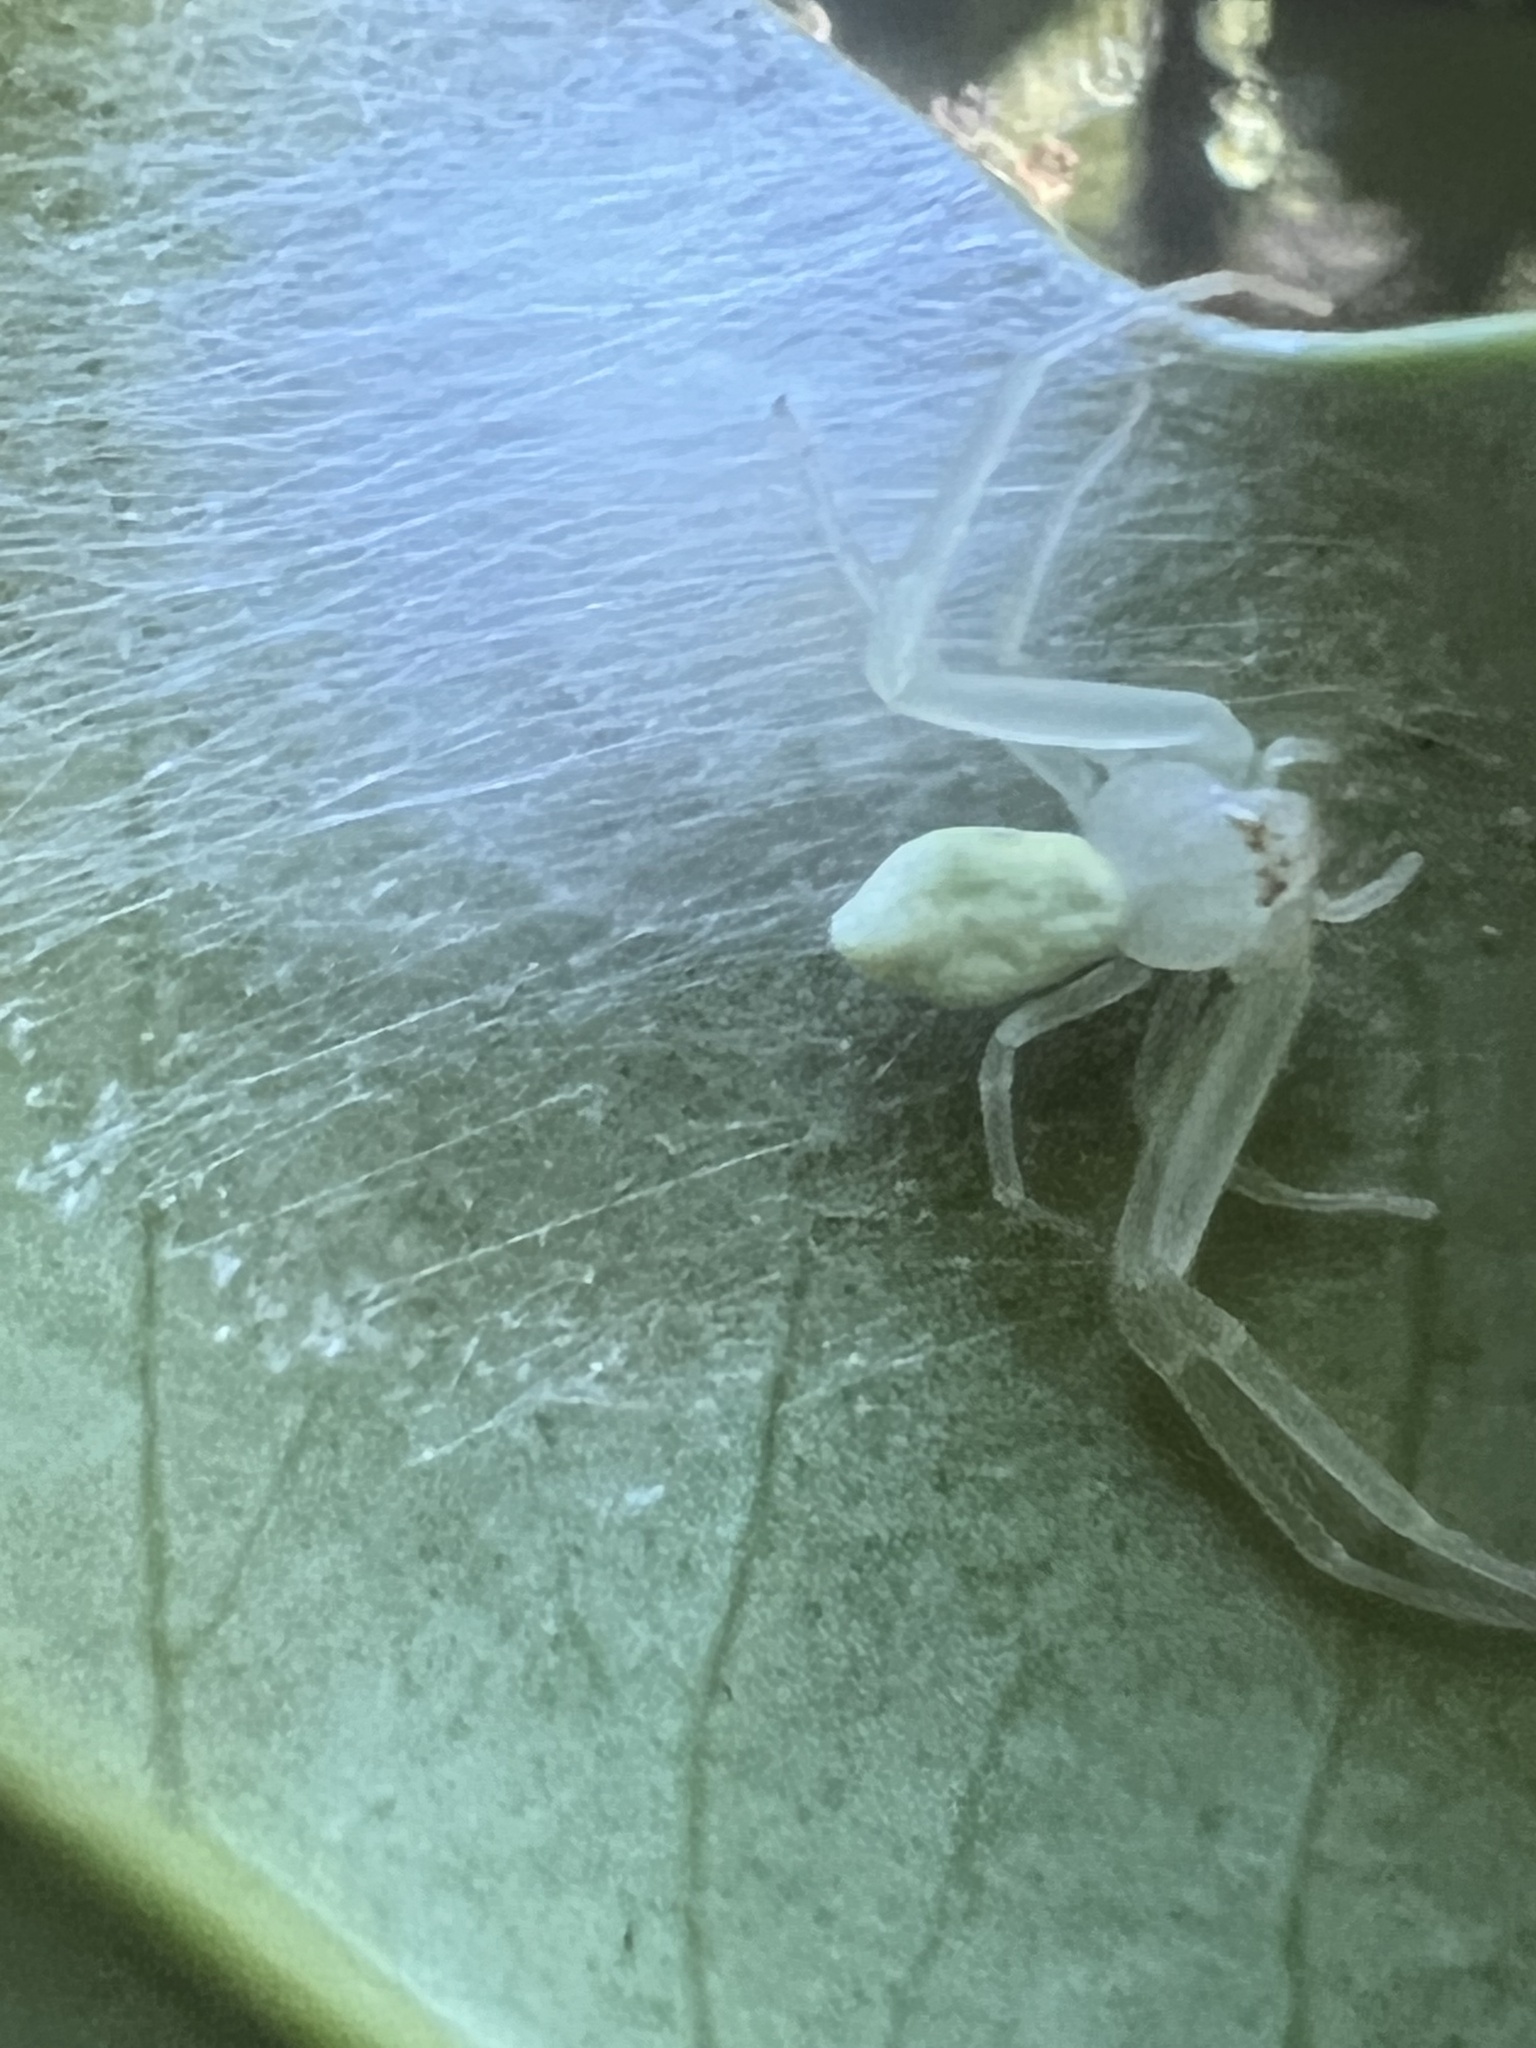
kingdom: Animalia
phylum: Arthropoda
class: Arachnida
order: Araneae
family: Thomisidae
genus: Misumessus
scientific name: Misumessus oblongus
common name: American green crab spider
